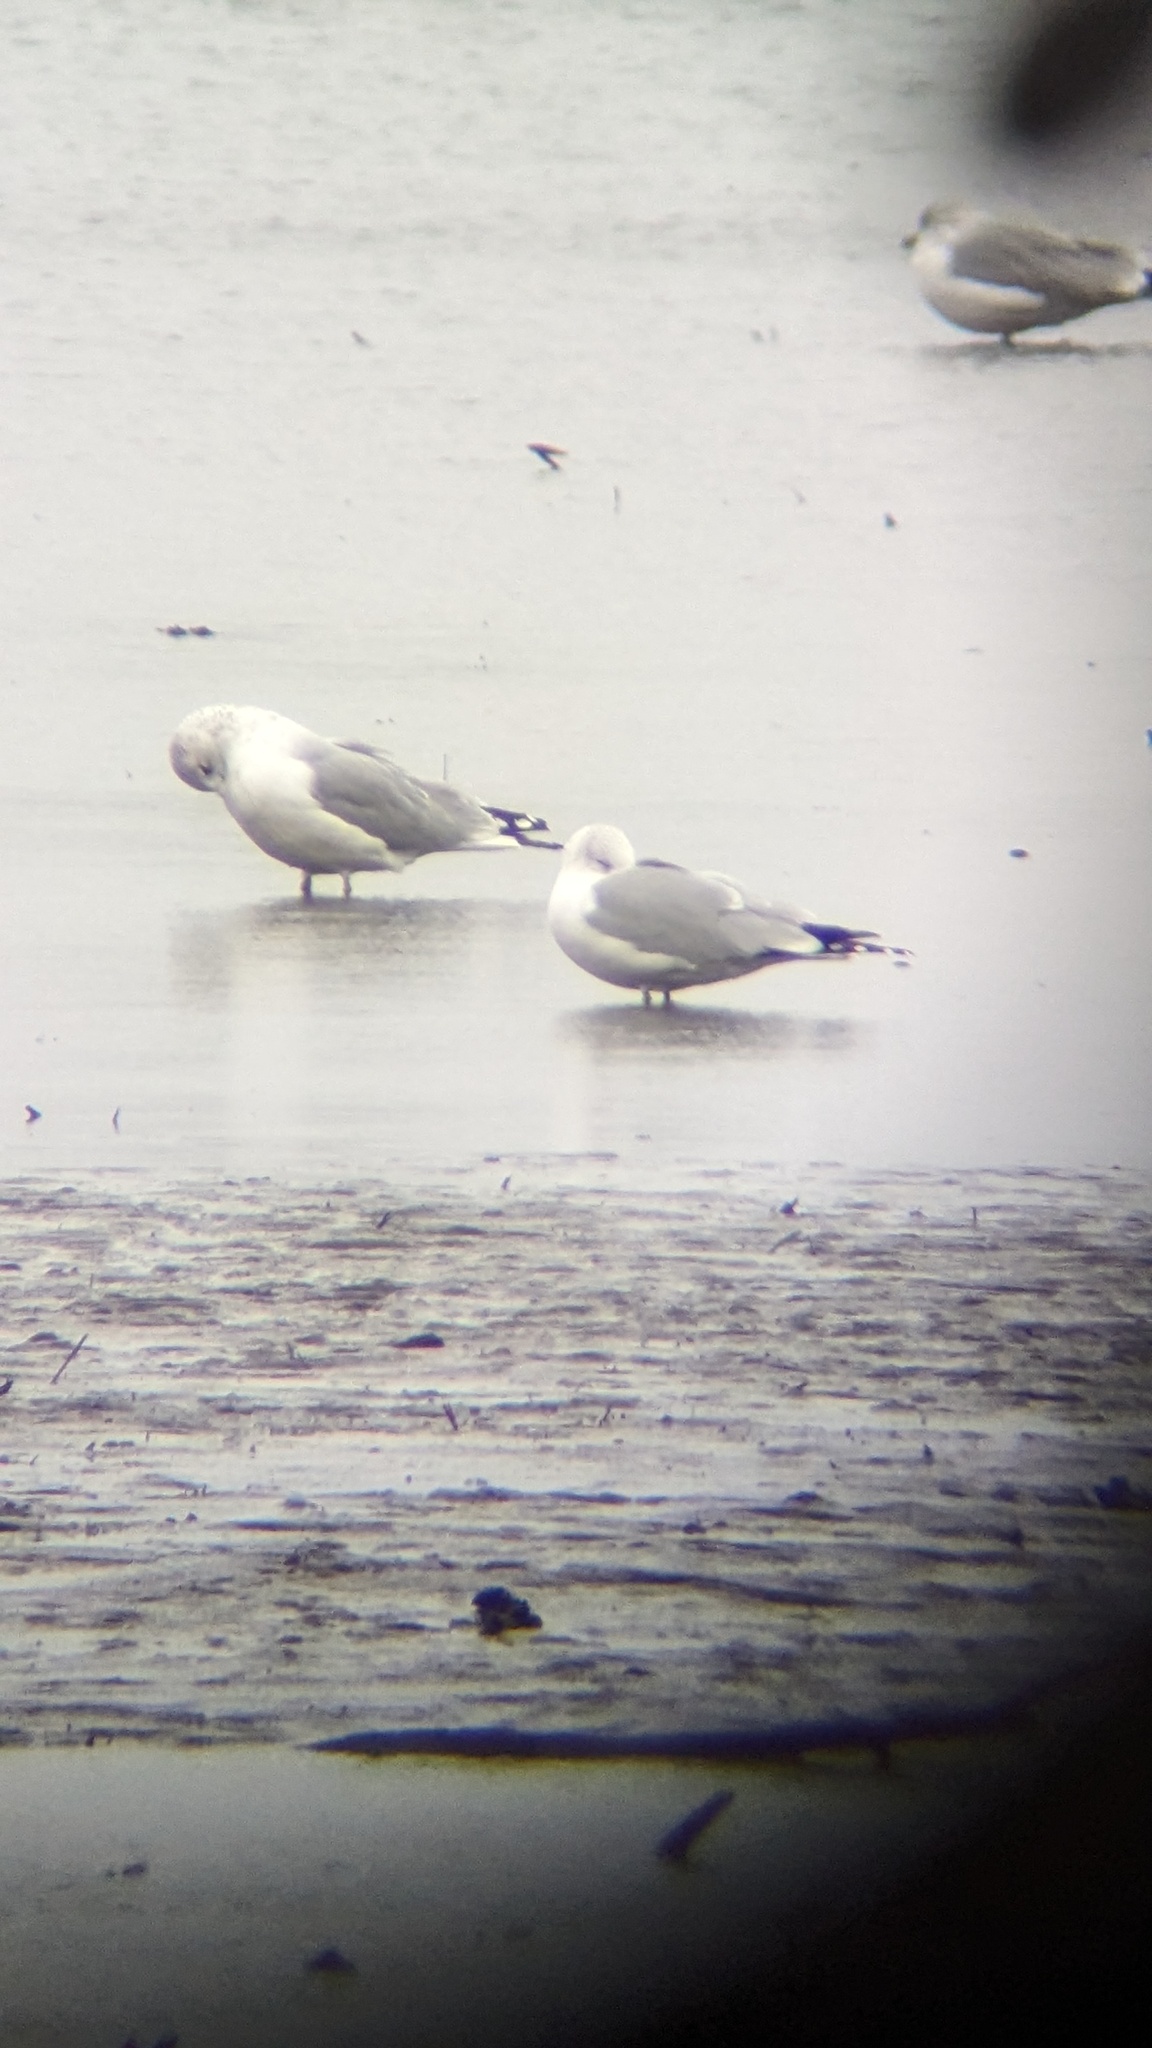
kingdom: Animalia
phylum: Chordata
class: Aves
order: Charadriiformes
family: Laridae
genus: Larus
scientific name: Larus delawarensis
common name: Ring-billed gull
